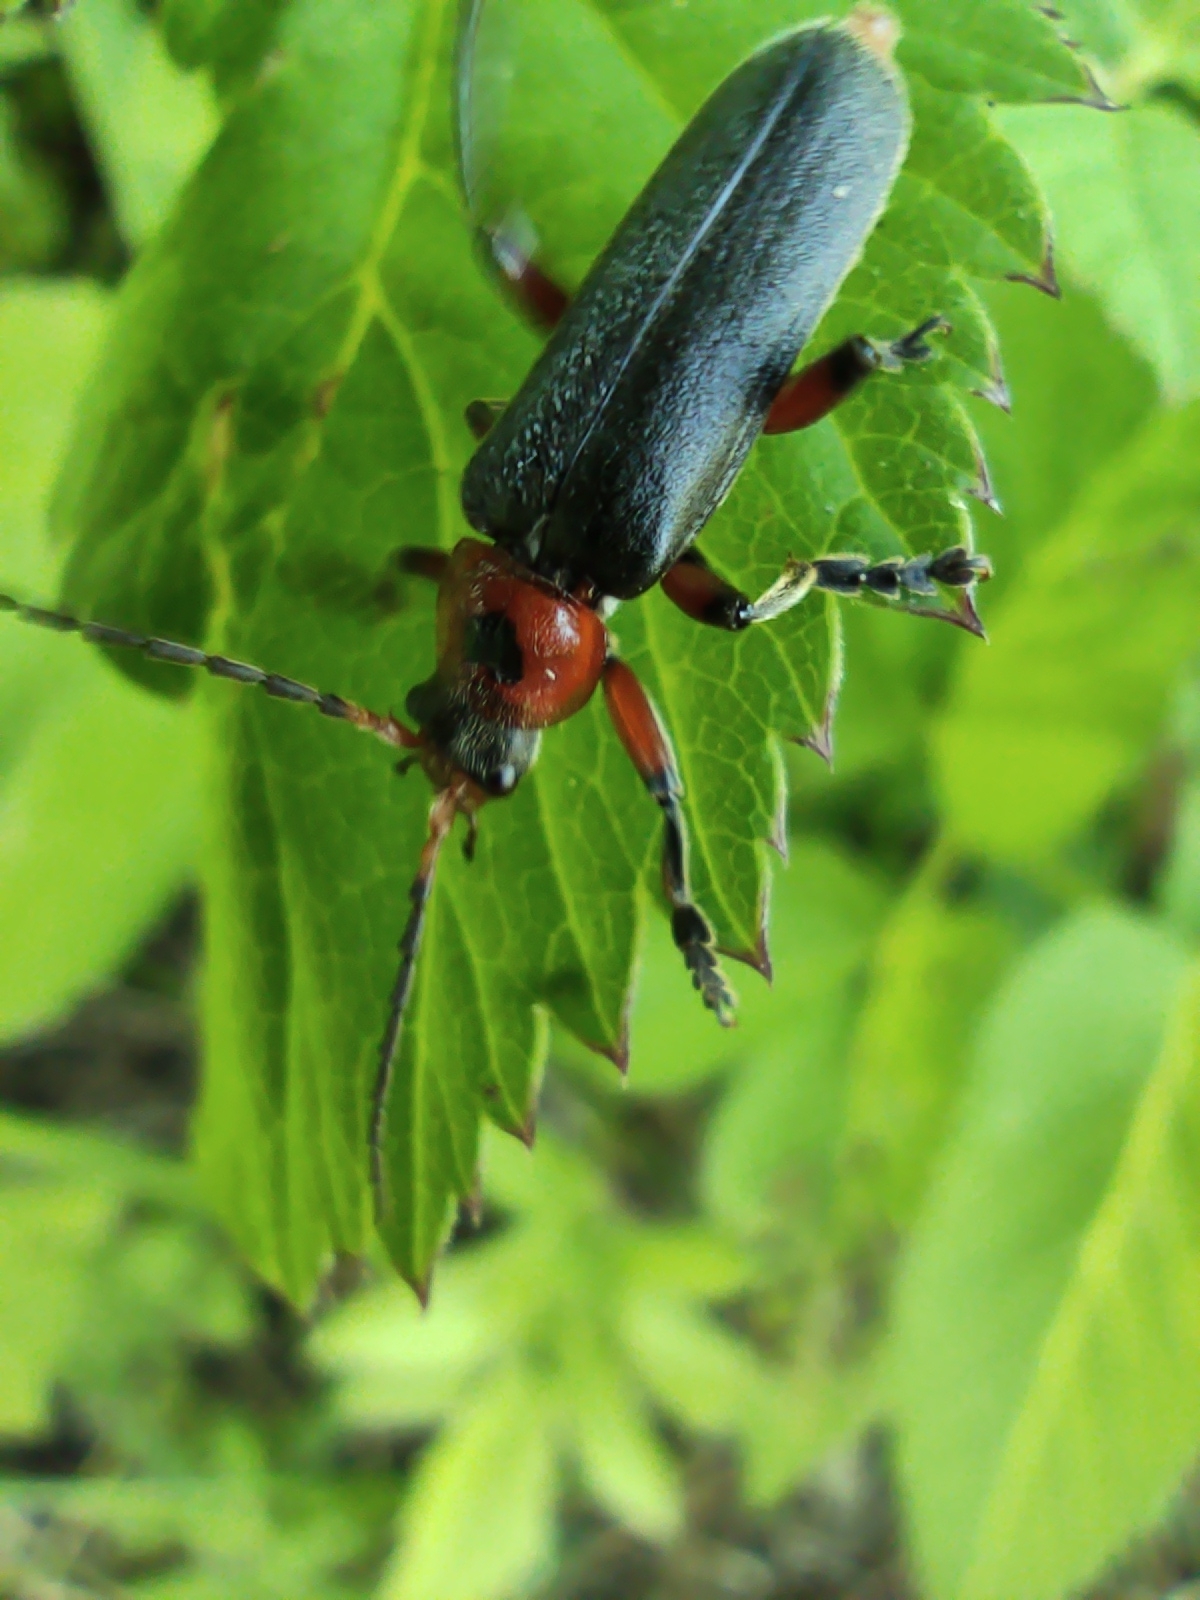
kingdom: Animalia
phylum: Arthropoda
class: Insecta
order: Coleoptera
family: Cantharidae
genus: Cantharis
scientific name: Cantharis rustica
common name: Soldier beetle
